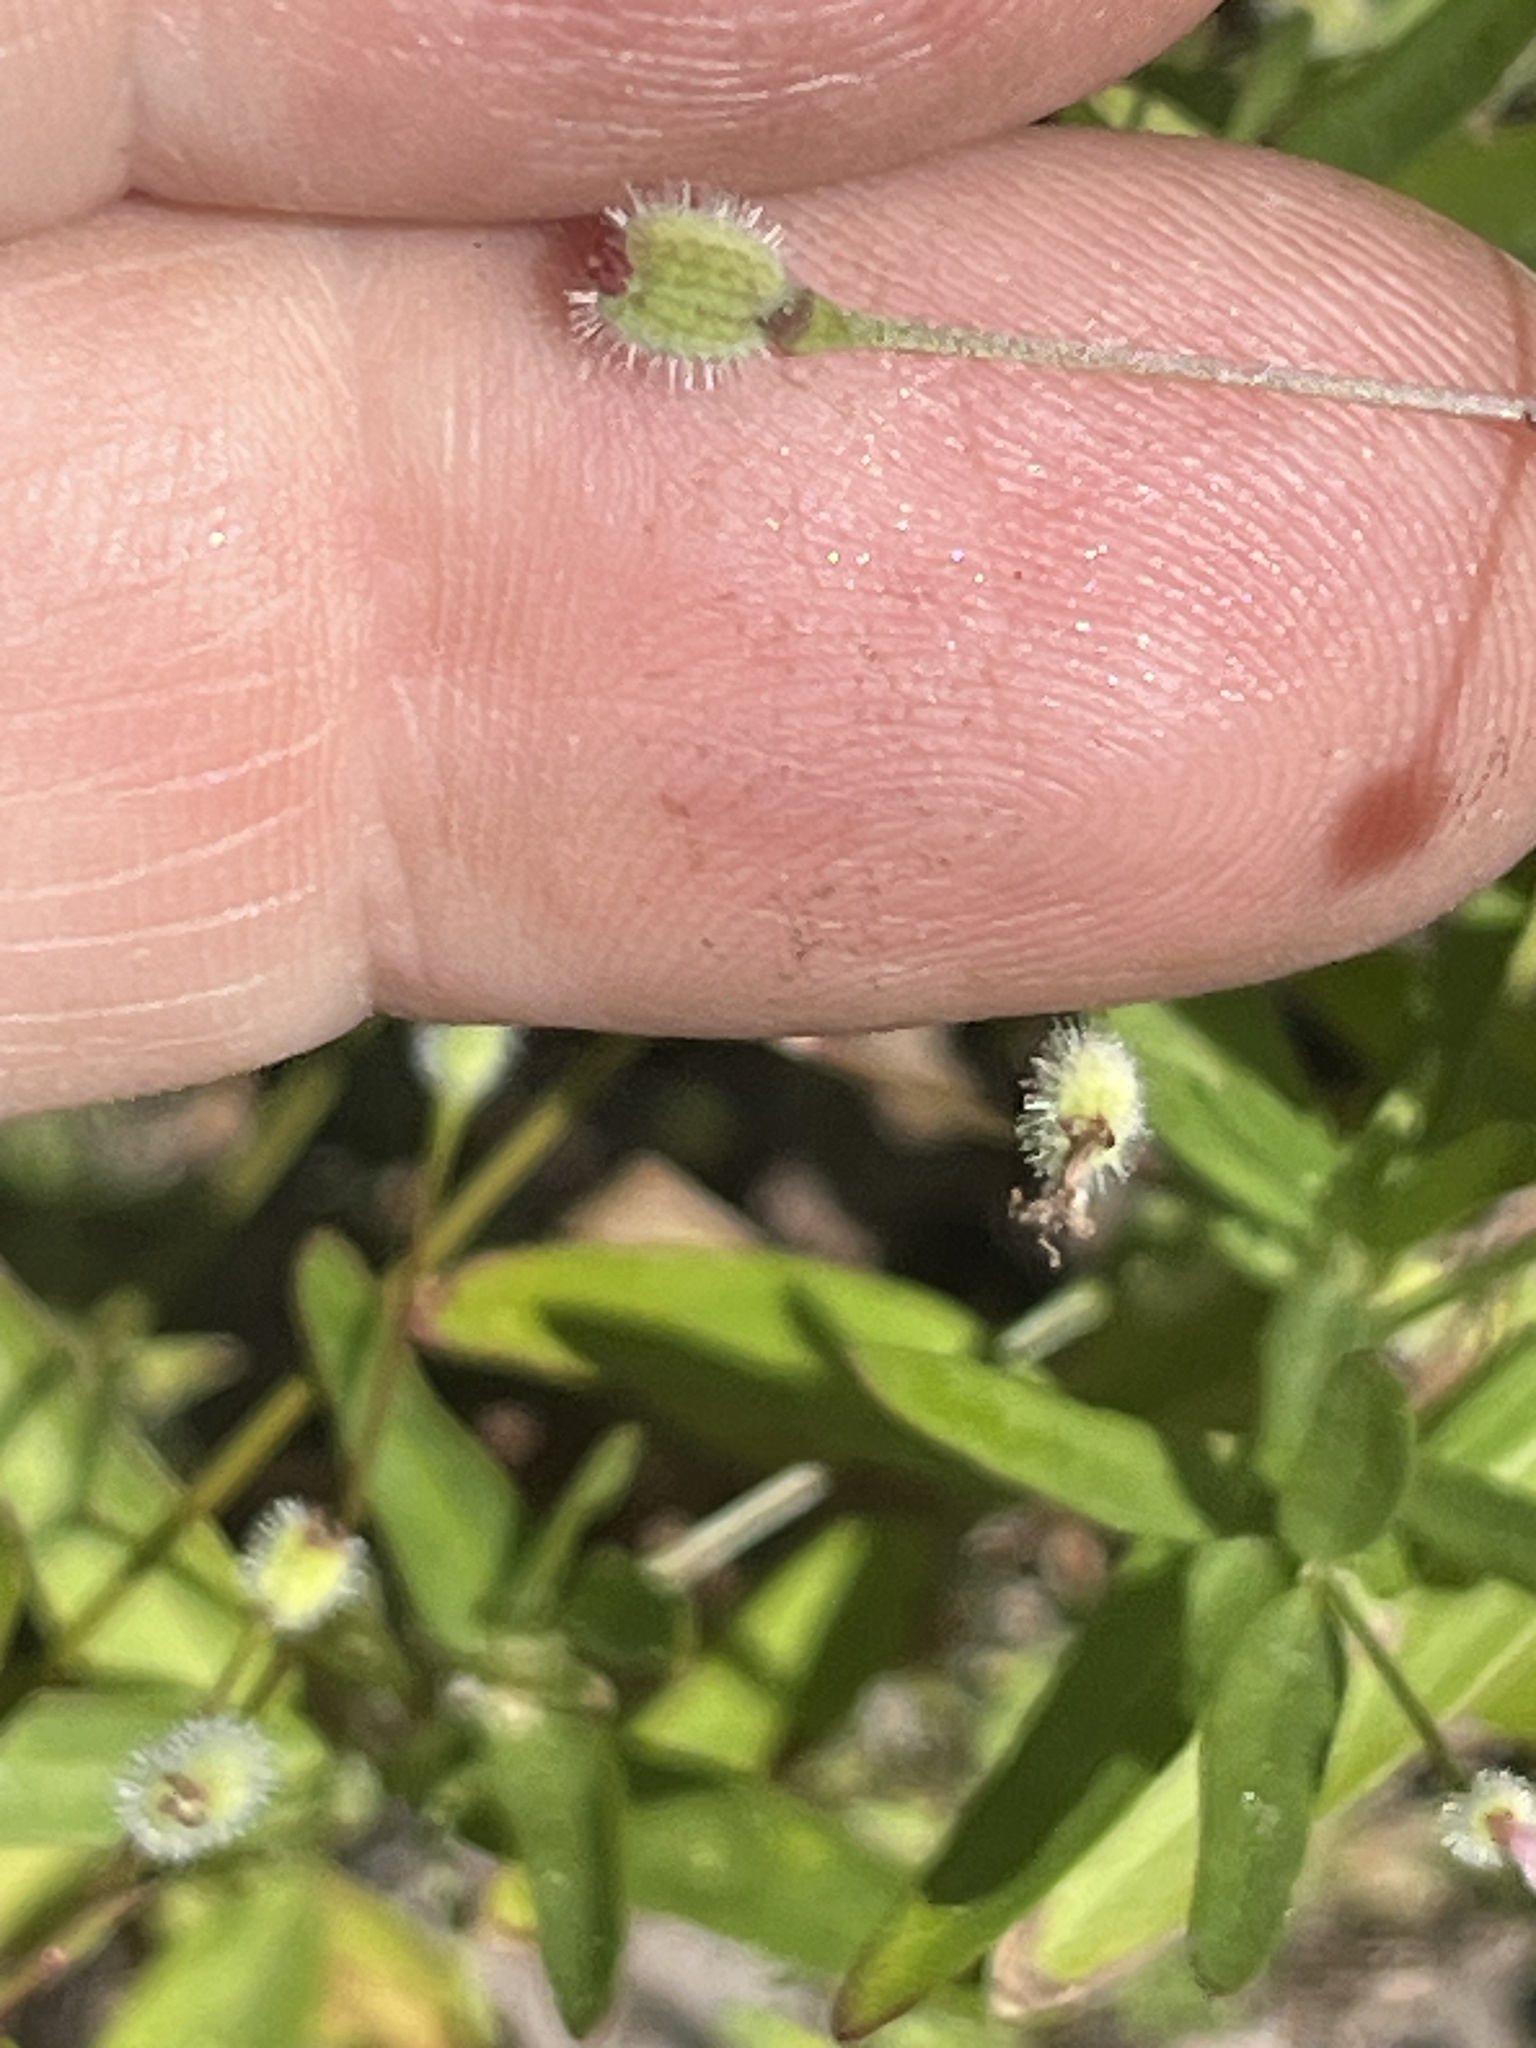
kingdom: Plantae
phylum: Tracheophyta
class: Magnoliopsida
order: Gentianales
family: Rubiaceae
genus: Kelloggia
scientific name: Kelloggia galioides
